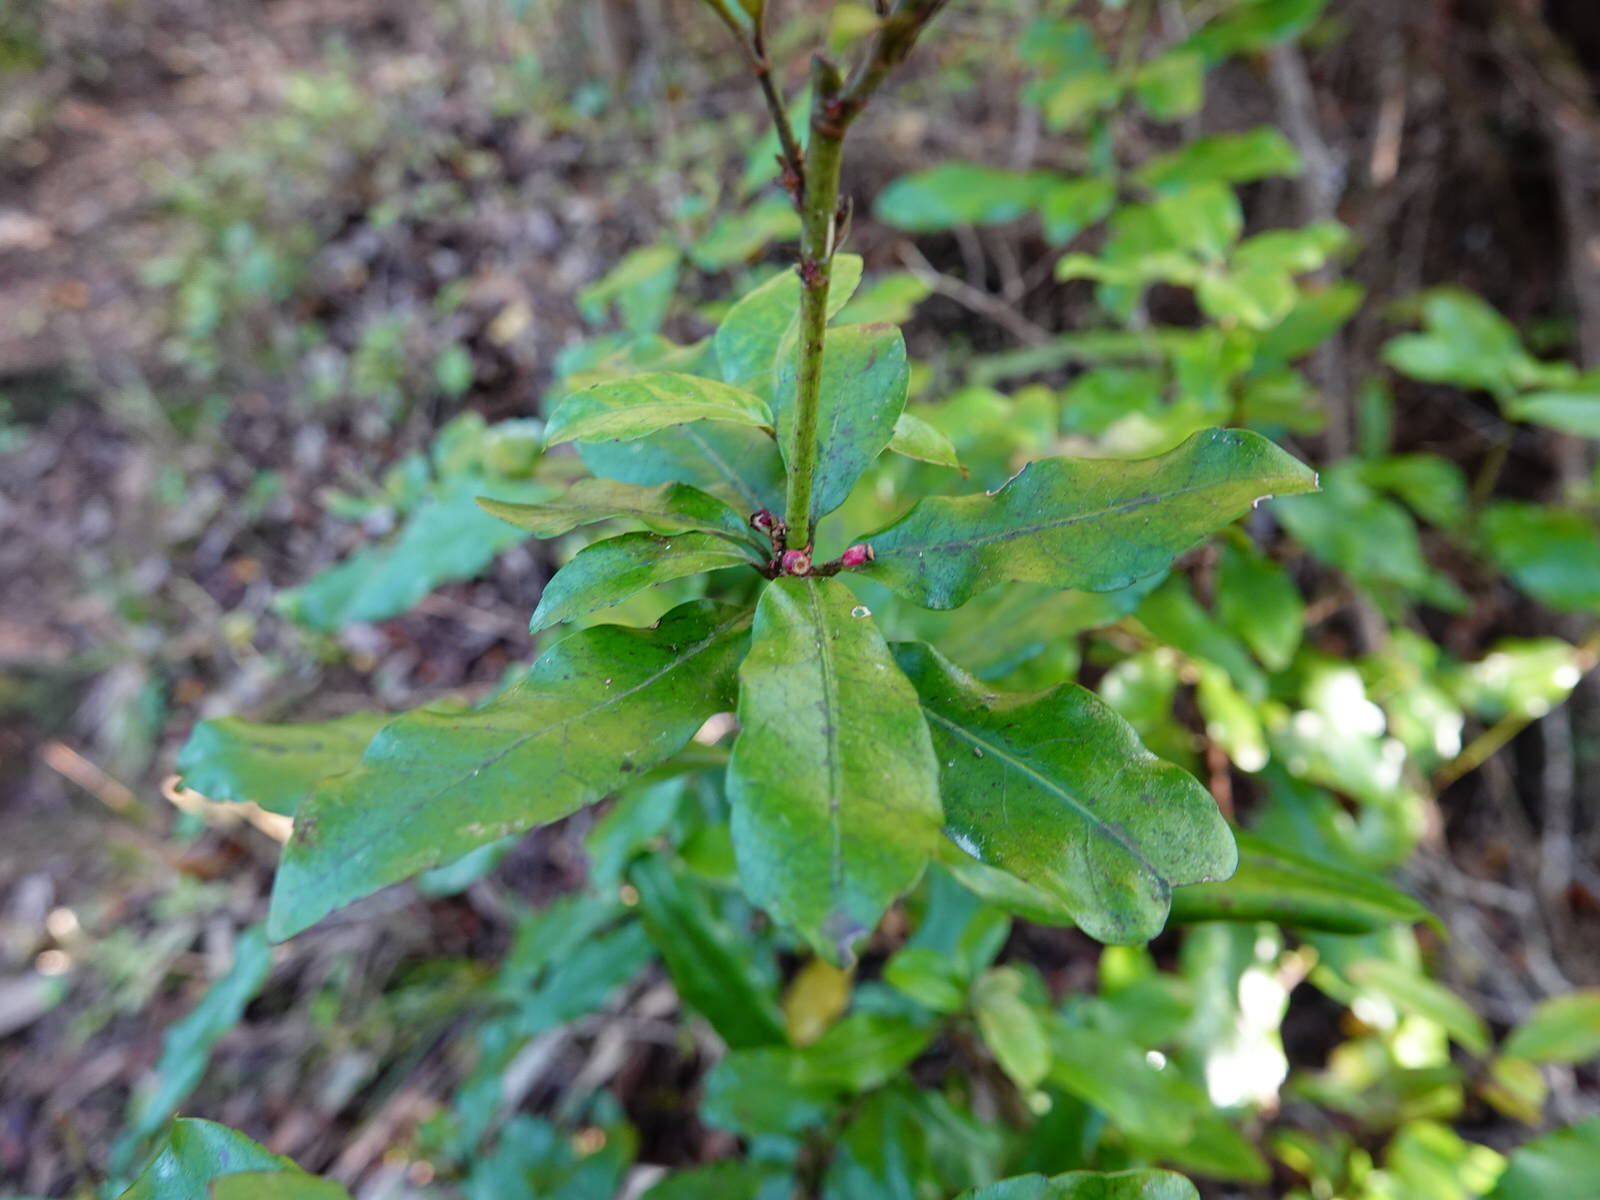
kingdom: Plantae
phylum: Tracheophyta
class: Magnoliopsida
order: Asterales
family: Alseuosmiaceae
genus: Alseuosmia
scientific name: Alseuosmia macrophylla
